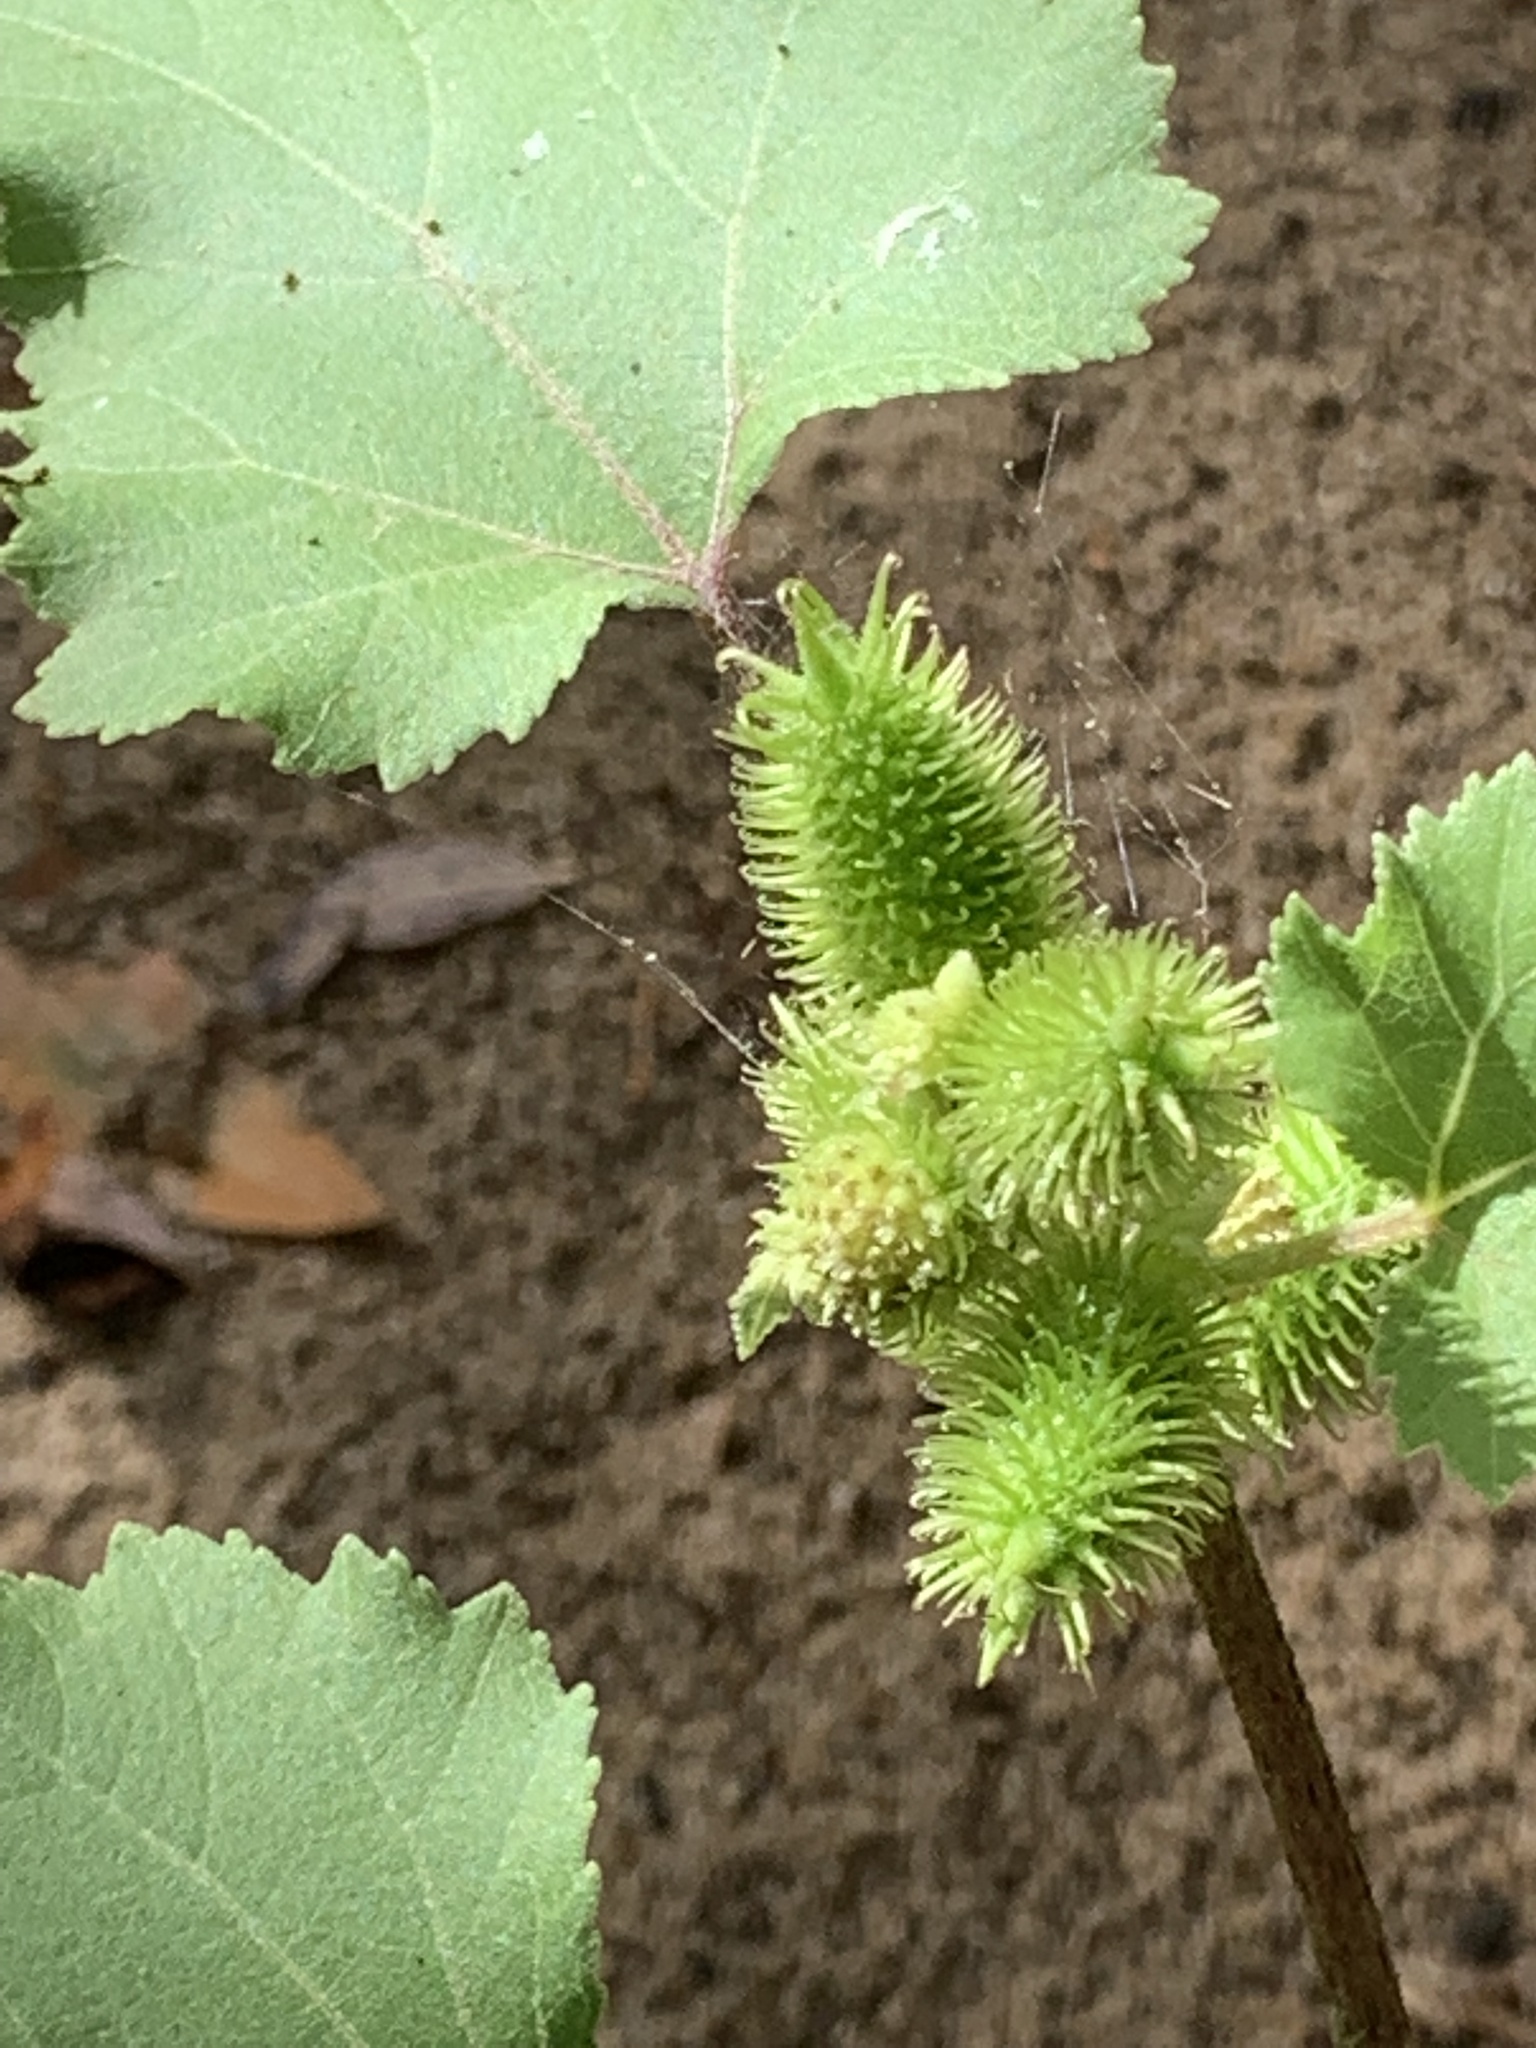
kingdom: Plantae
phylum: Tracheophyta
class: Magnoliopsida
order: Asterales
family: Asteraceae
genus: Xanthium
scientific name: Xanthium strumarium
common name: Rough cocklebur
